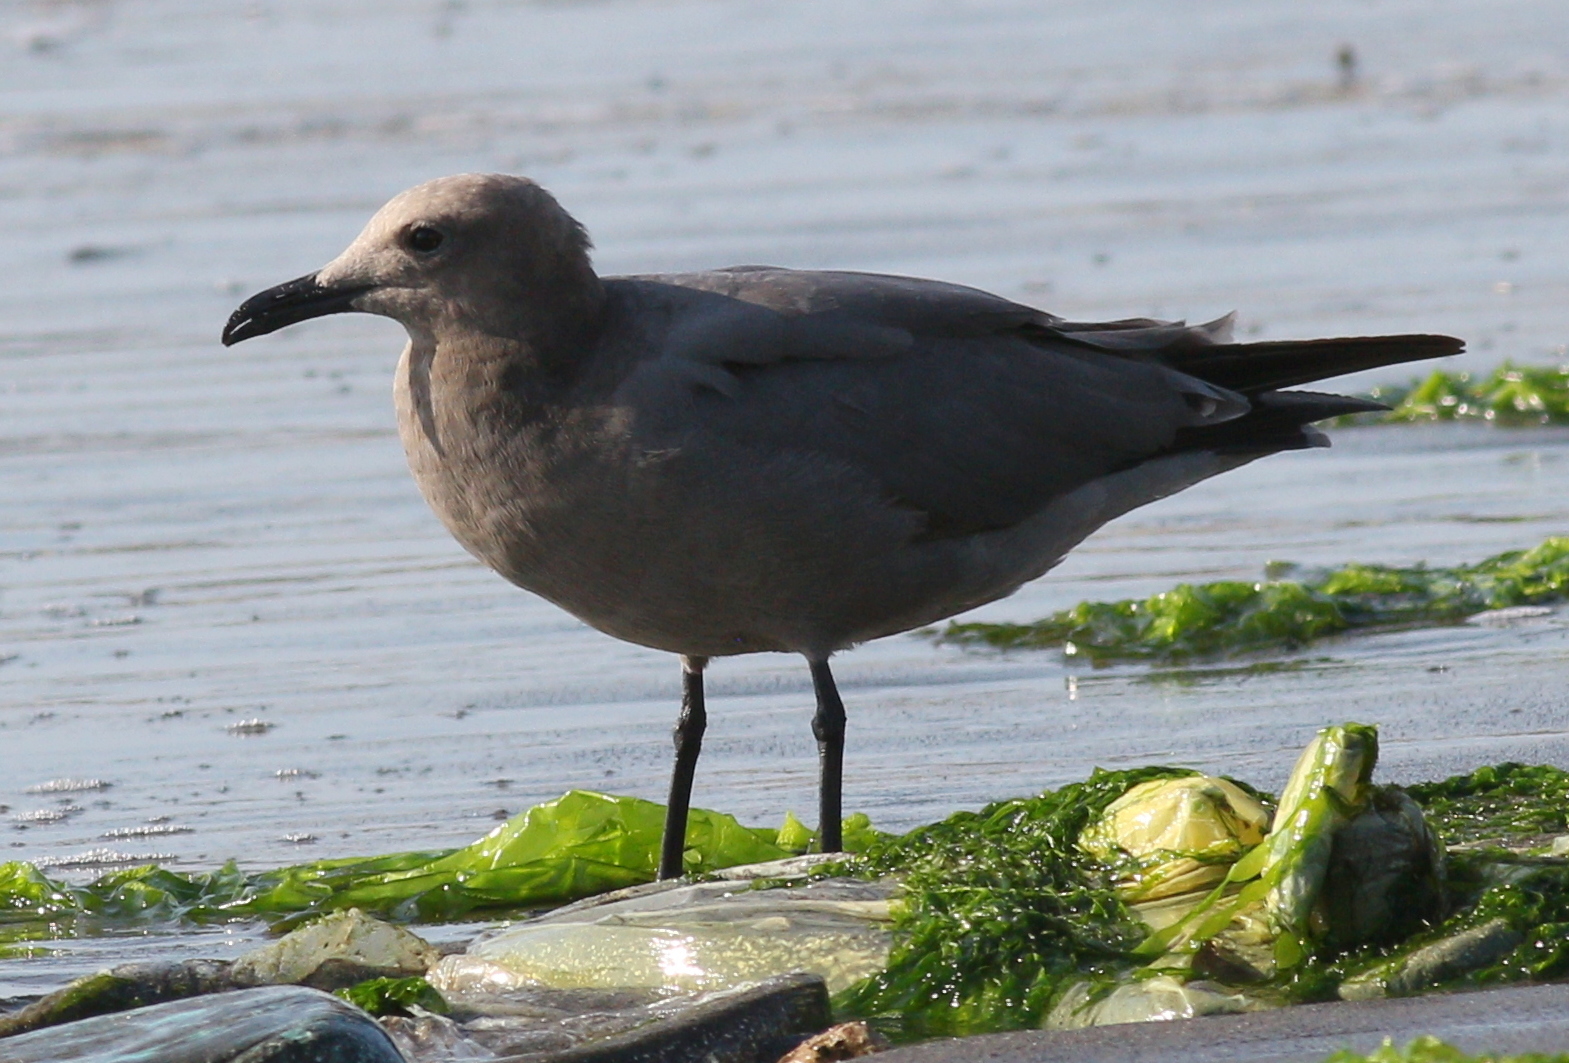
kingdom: Animalia
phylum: Chordata
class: Aves
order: Charadriiformes
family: Laridae
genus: Leucophaeus
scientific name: Leucophaeus modestus
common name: Gray gull
